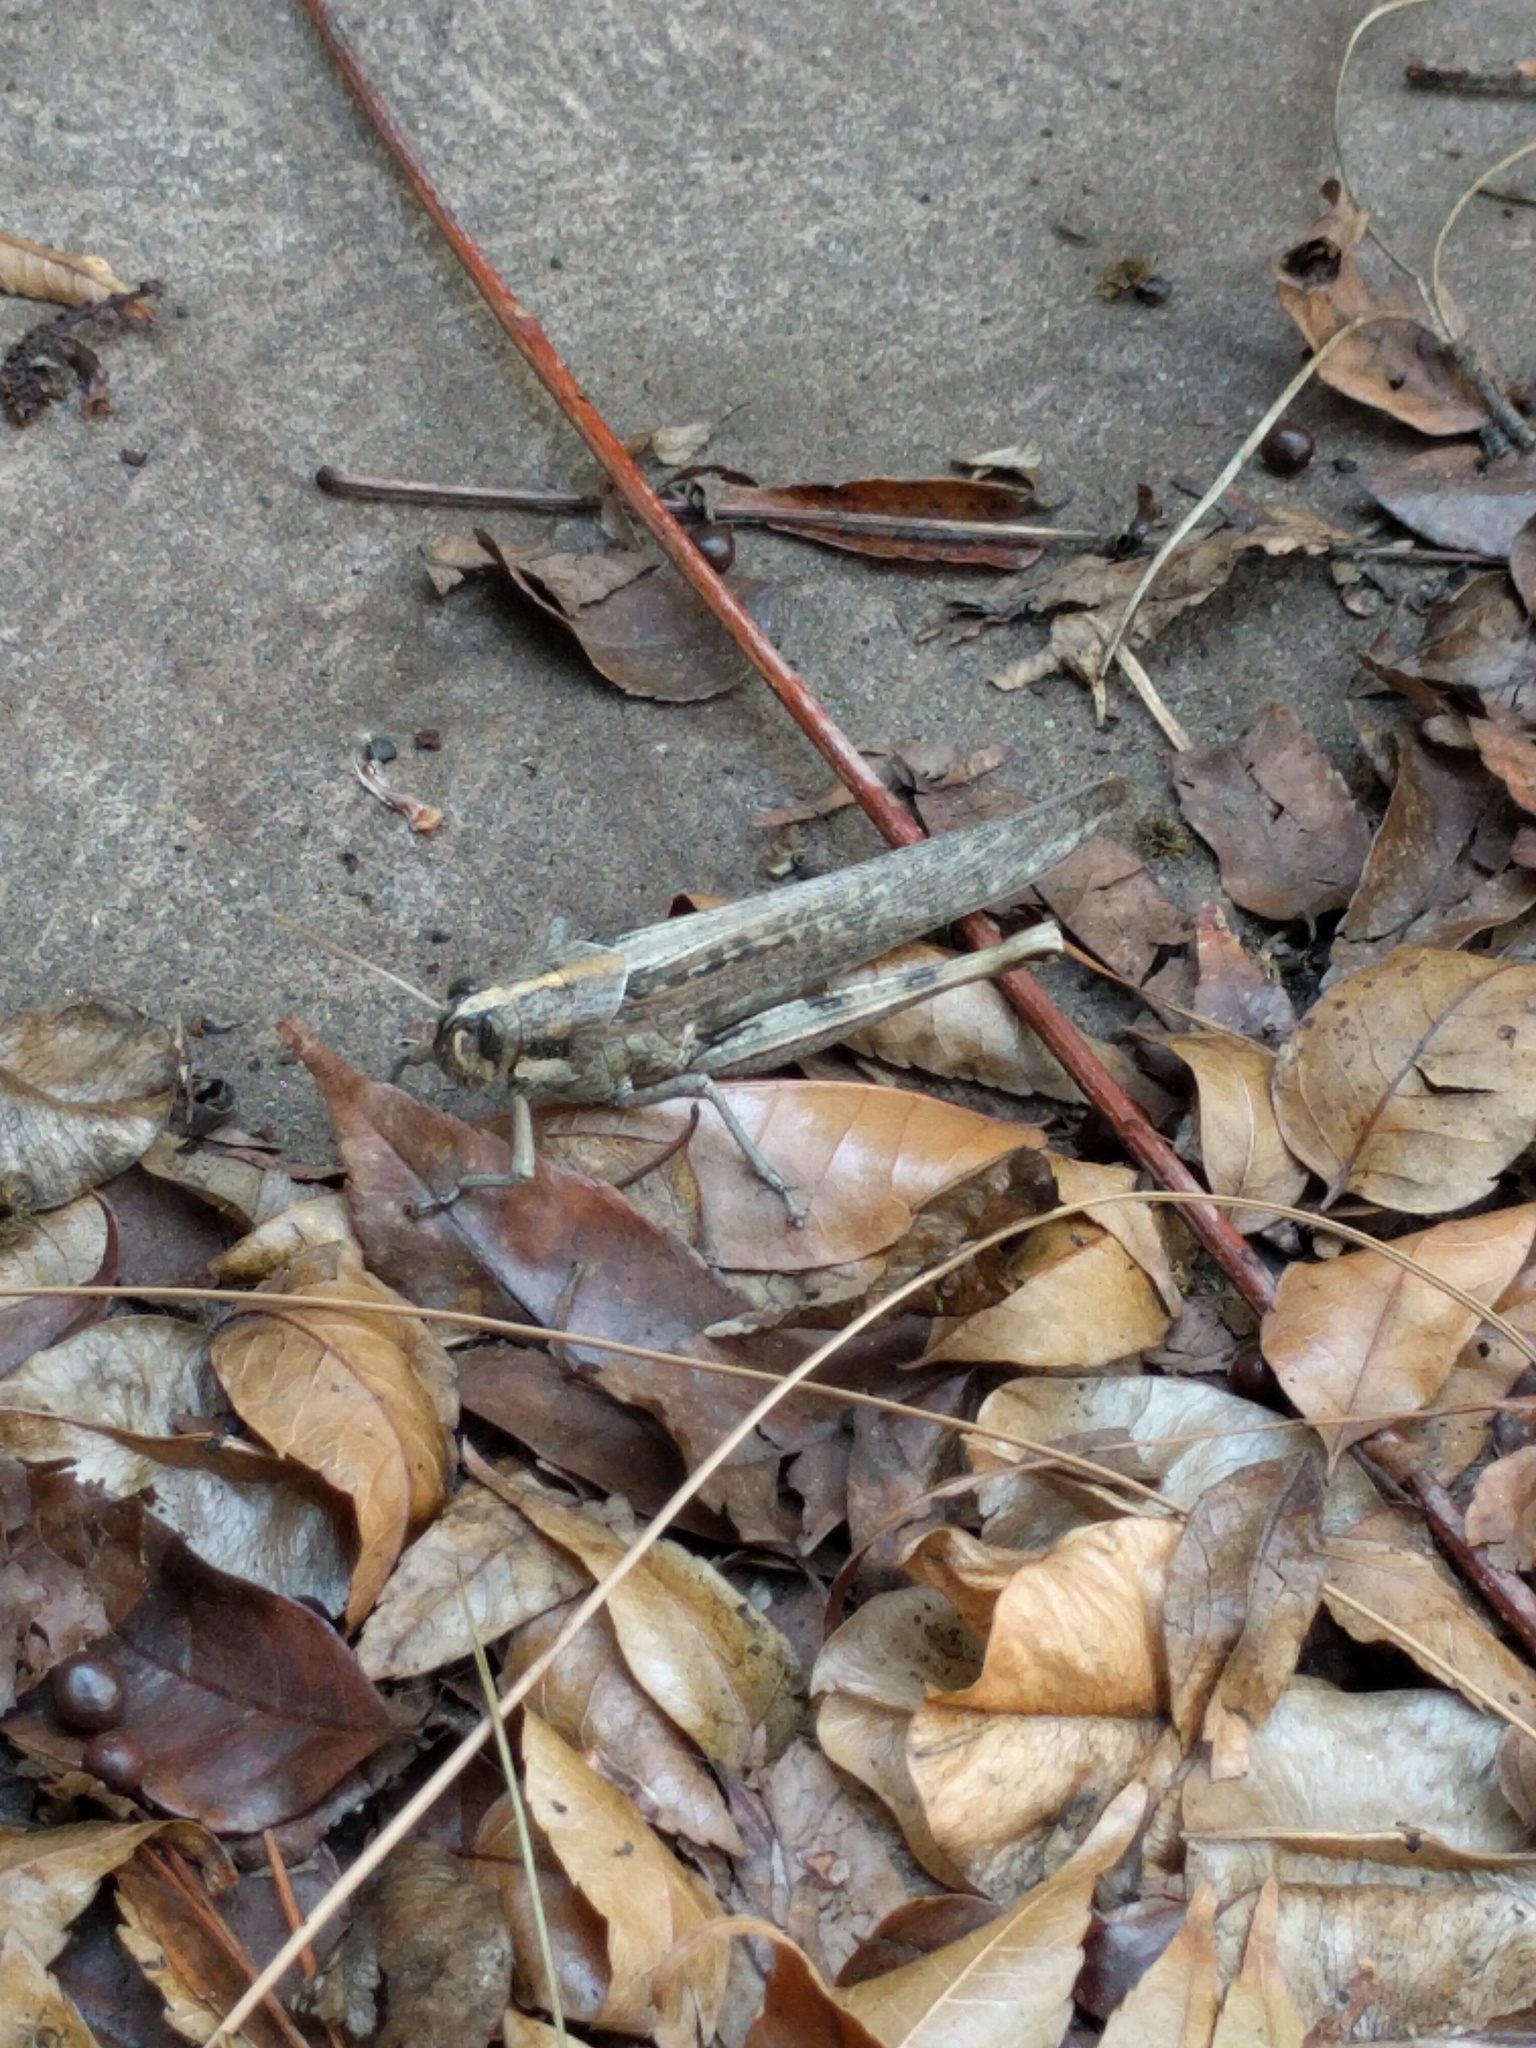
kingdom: Animalia
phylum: Arthropoda
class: Insecta
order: Orthoptera
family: Acrididae
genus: Schistocerca
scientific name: Schistocerca nitens
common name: Vagrant grasshopper
